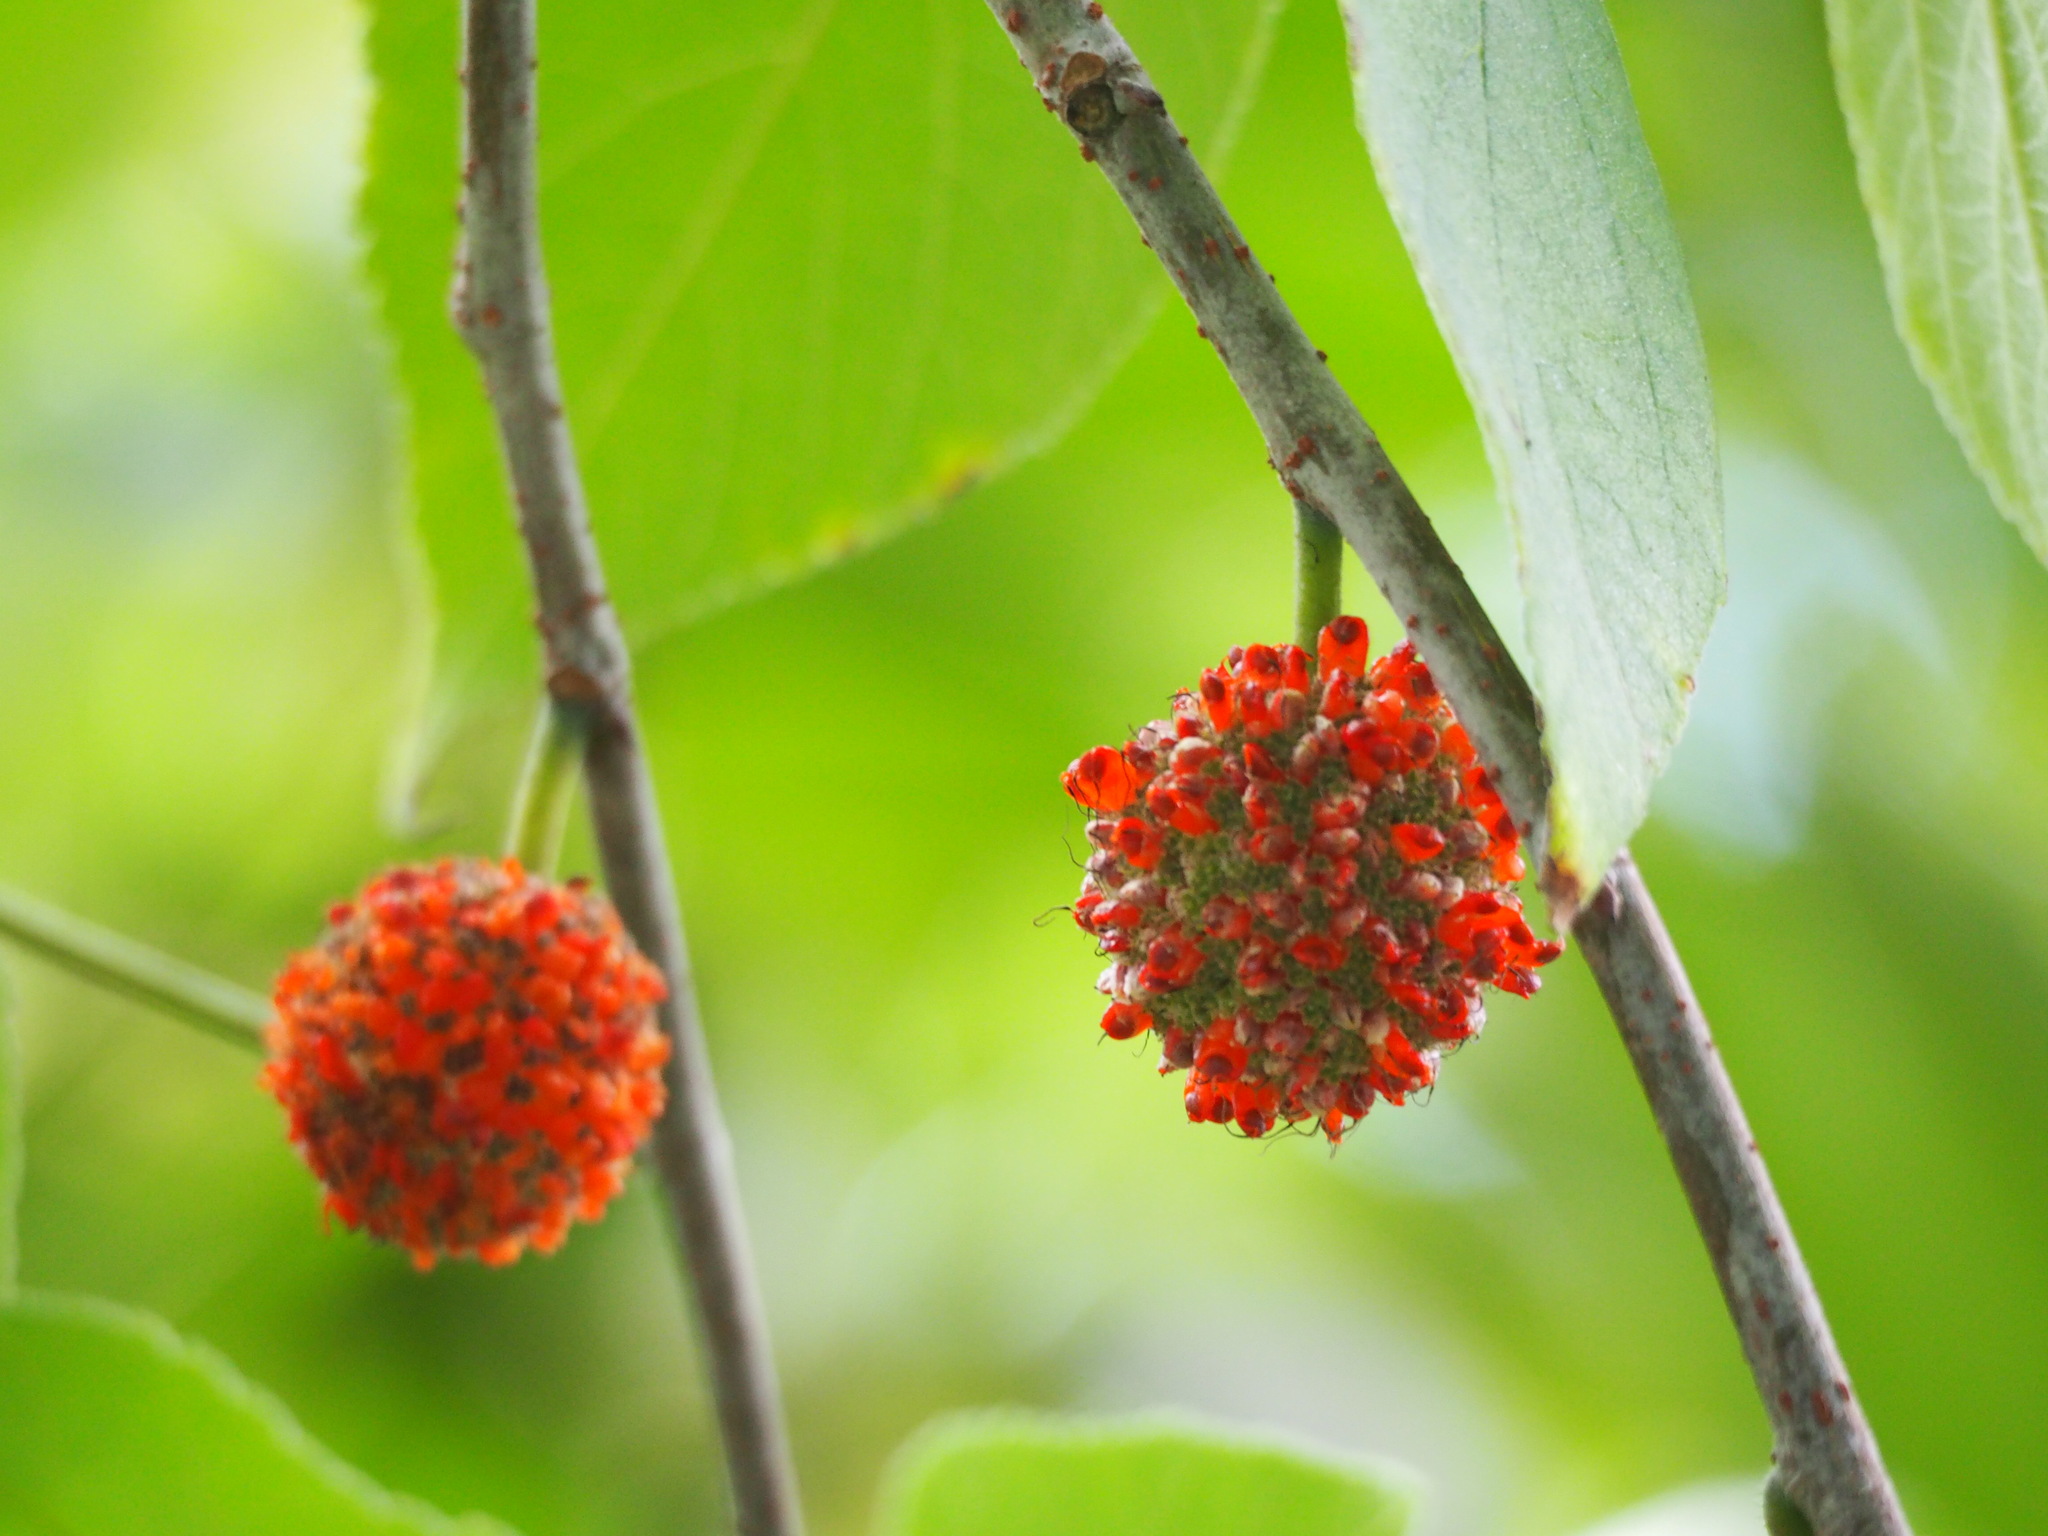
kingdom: Plantae
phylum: Tracheophyta
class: Magnoliopsida
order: Rosales
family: Moraceae
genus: Broussonetia
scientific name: Broussonetia papyrifera
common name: Paper mulberry
